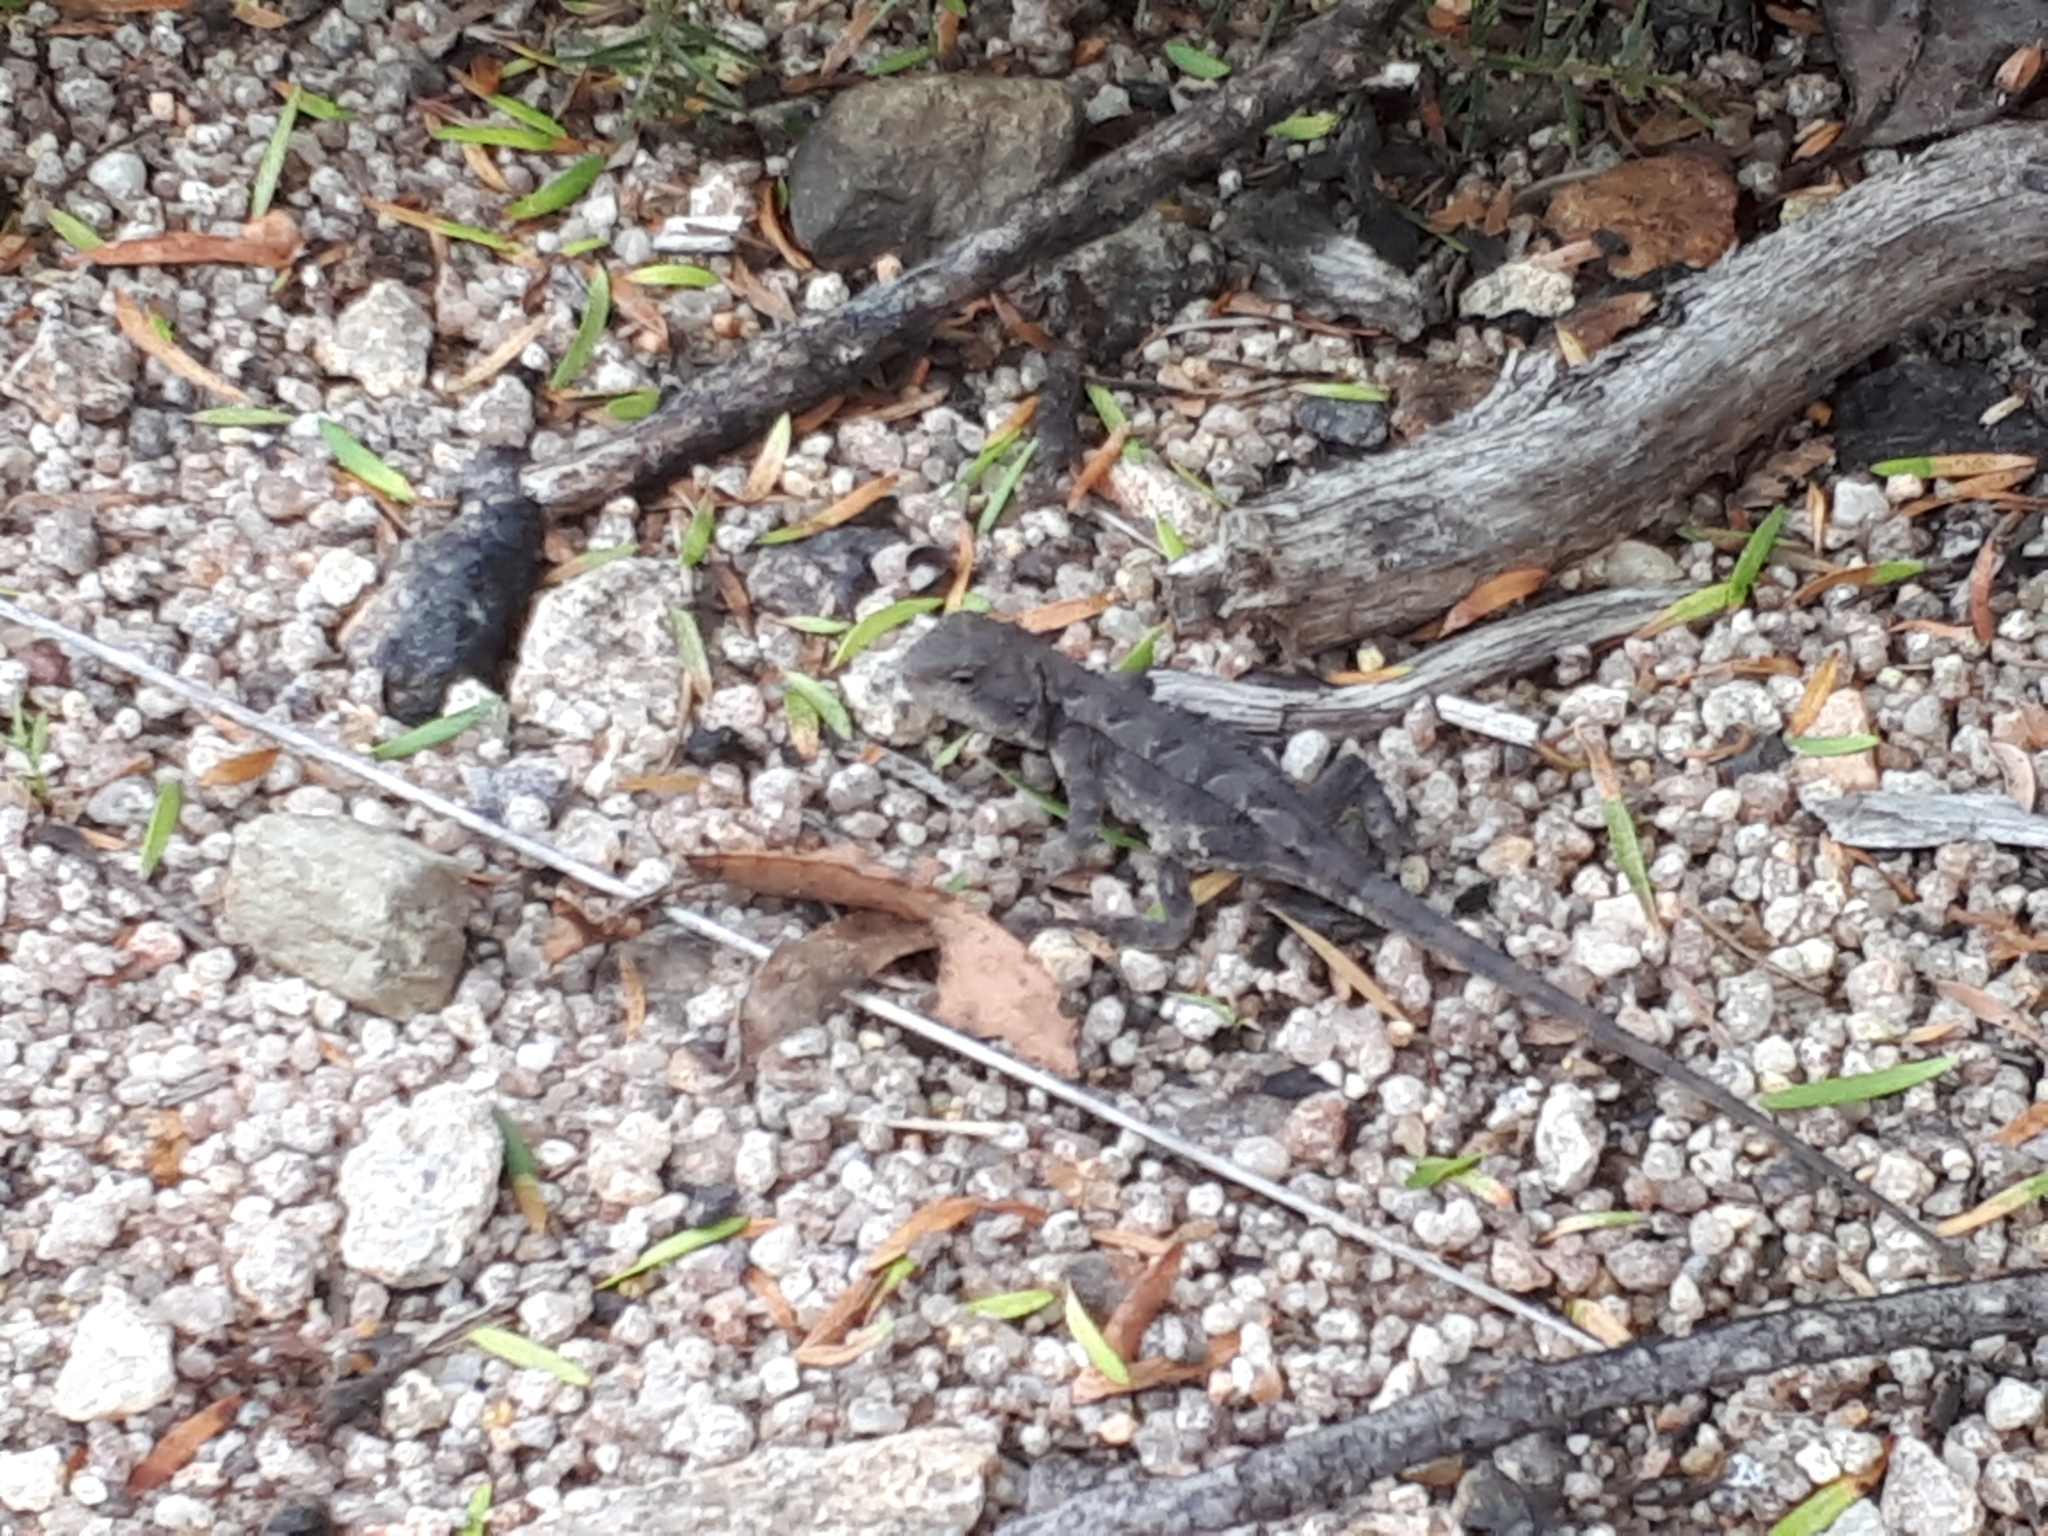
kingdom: Animalia
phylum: Chordata
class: Squamata
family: Agamidae
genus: Rankinia
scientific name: Rankinia diemensis
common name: Mountain dragon
